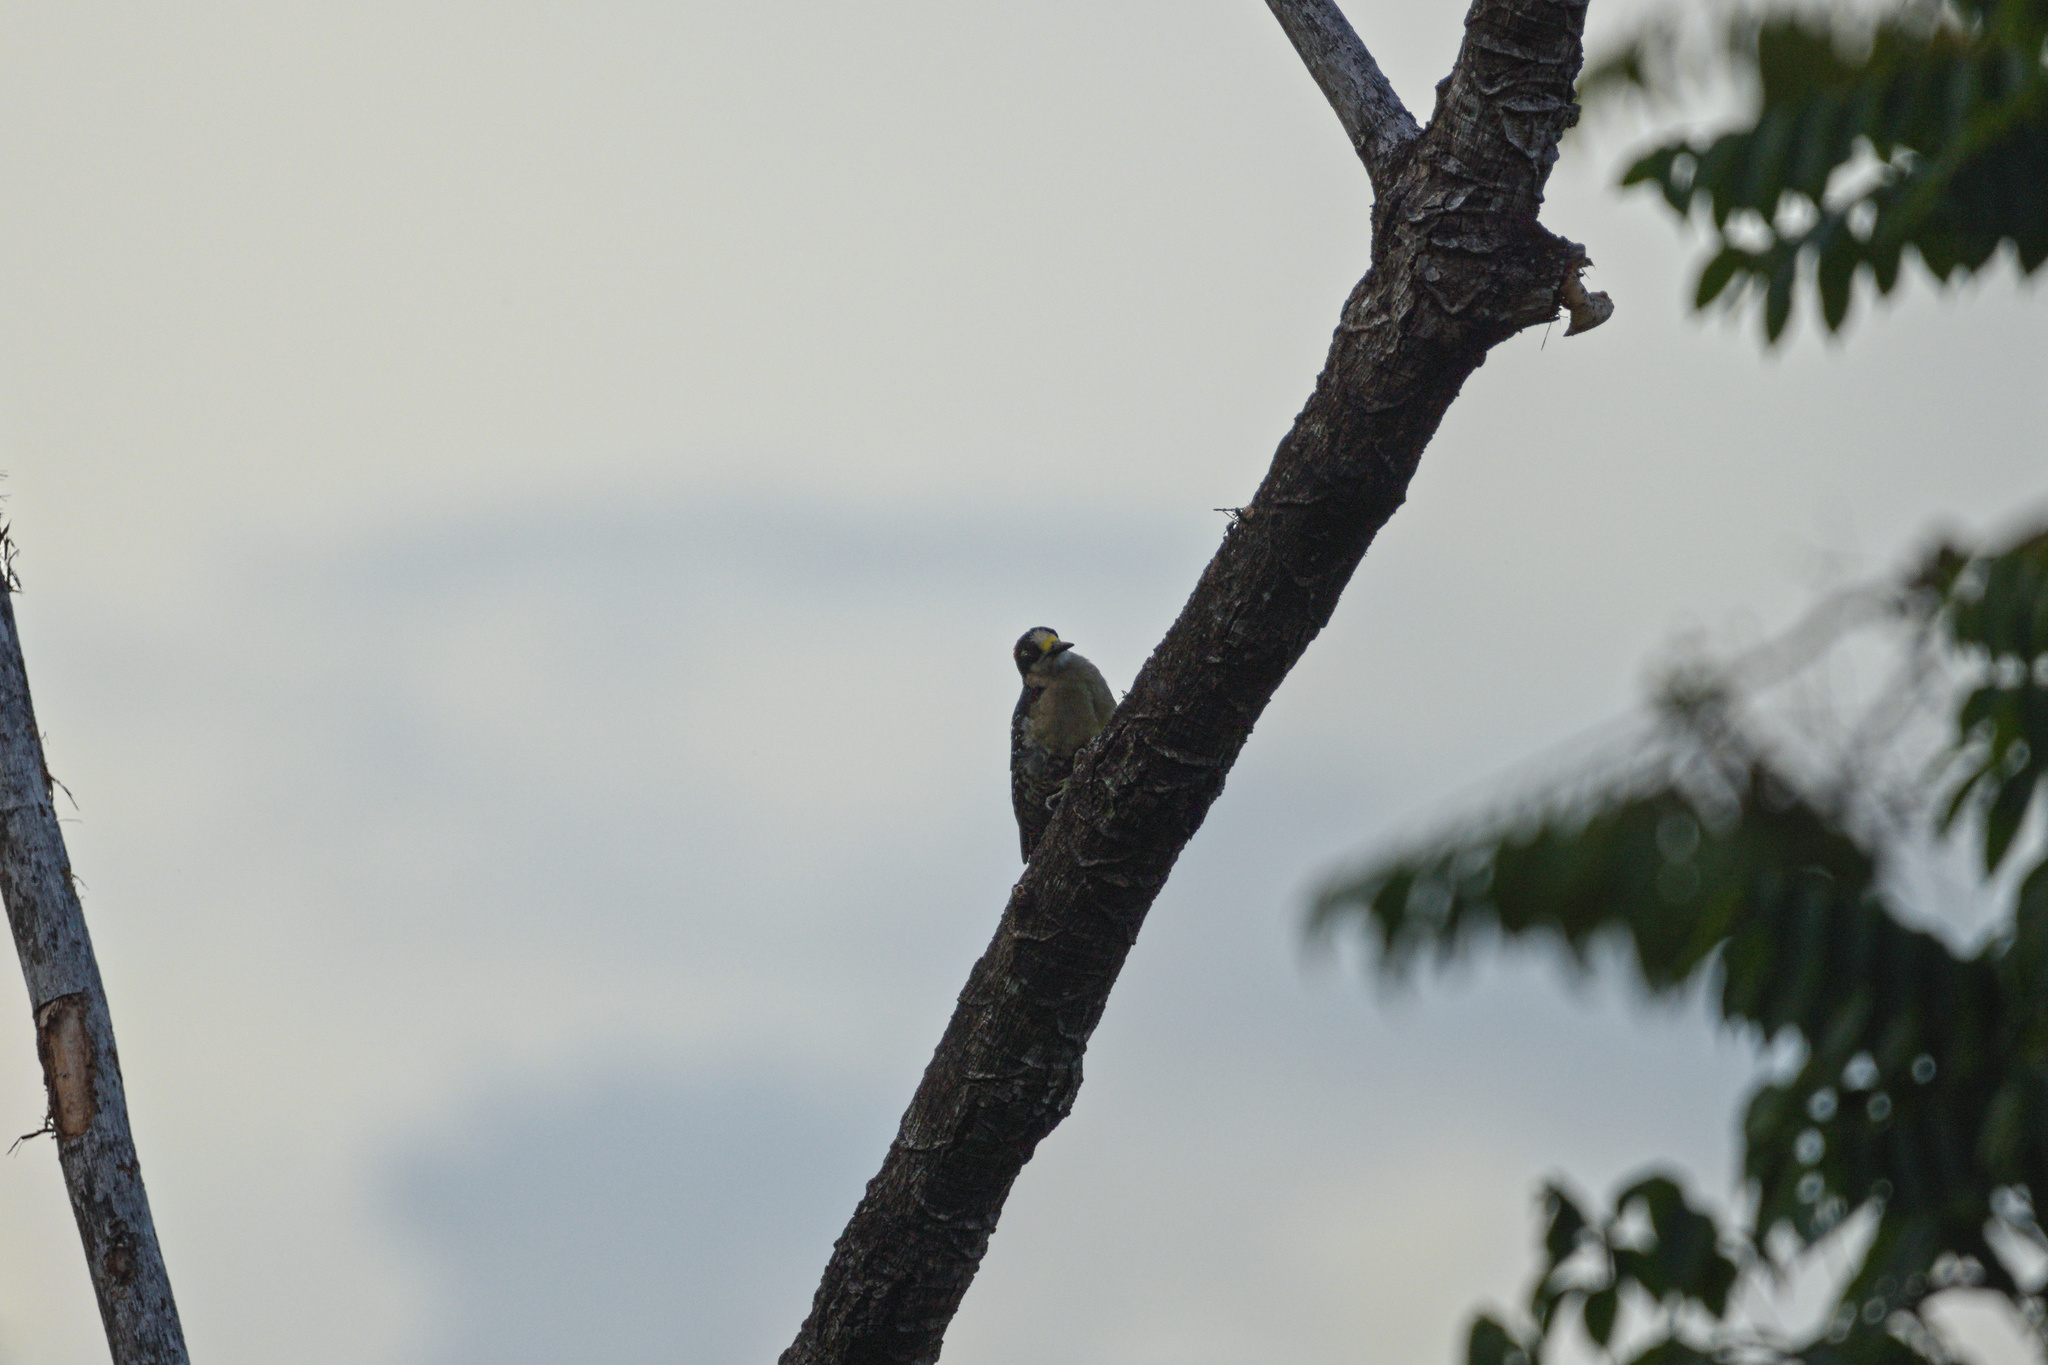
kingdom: Animalia
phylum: Chordata
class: Aves
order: Piciformes
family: Picidae
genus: Melanerpes
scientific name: Melanerpes pucherani
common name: Black-cheeked woodpecker
